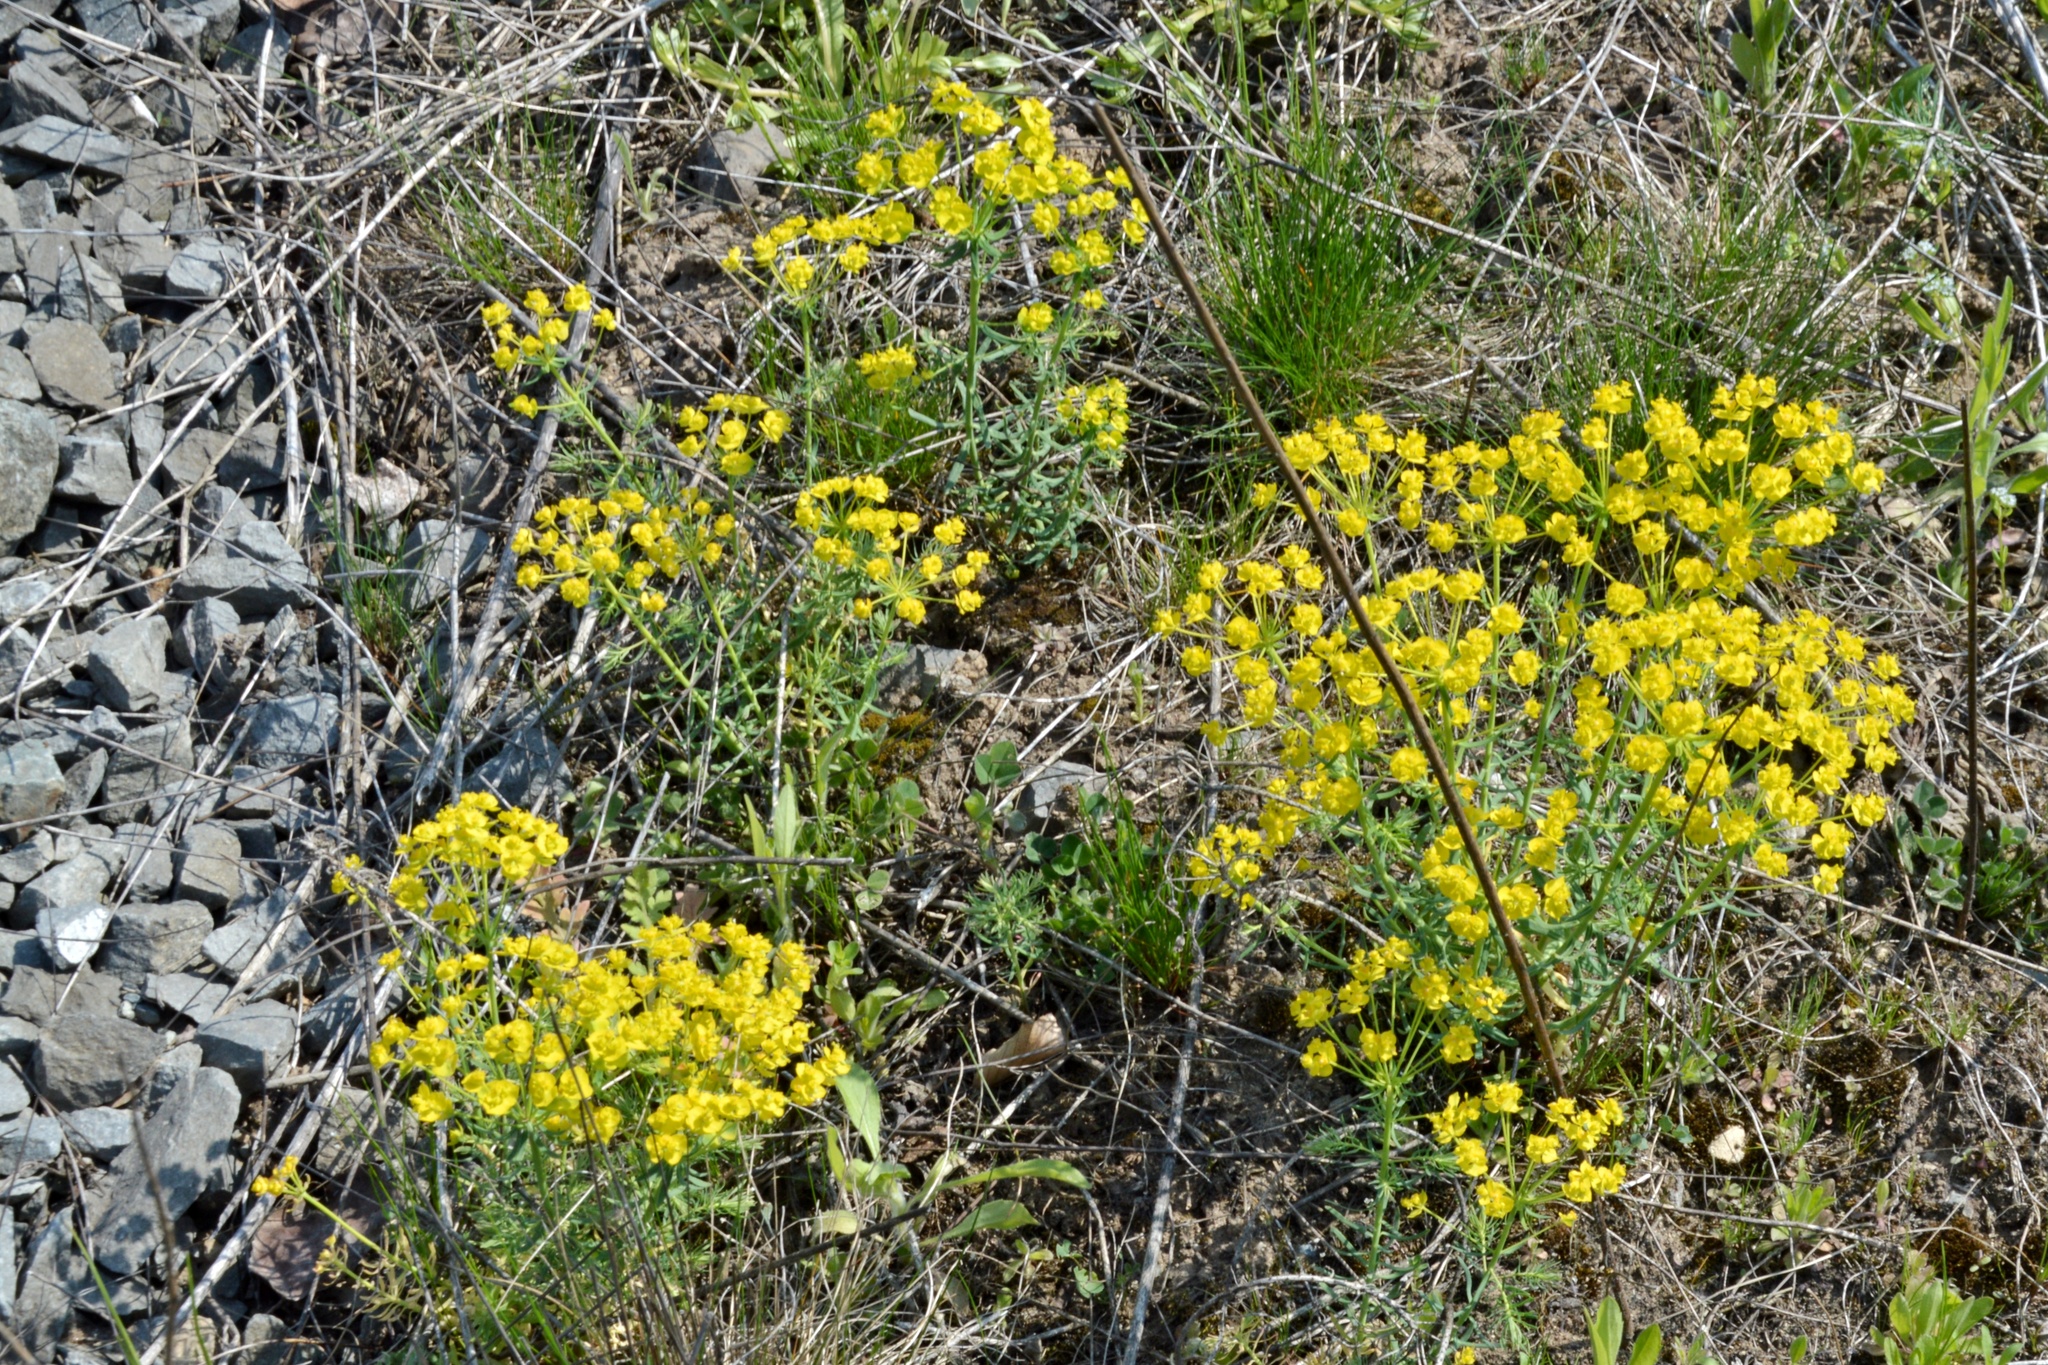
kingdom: Plantae
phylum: Tracheophyta
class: Magnoliopsida
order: Malpighiales
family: Euphorbiaceae
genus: Euphorbia
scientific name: Euphorbia cyparissias
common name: Cypress spurge
